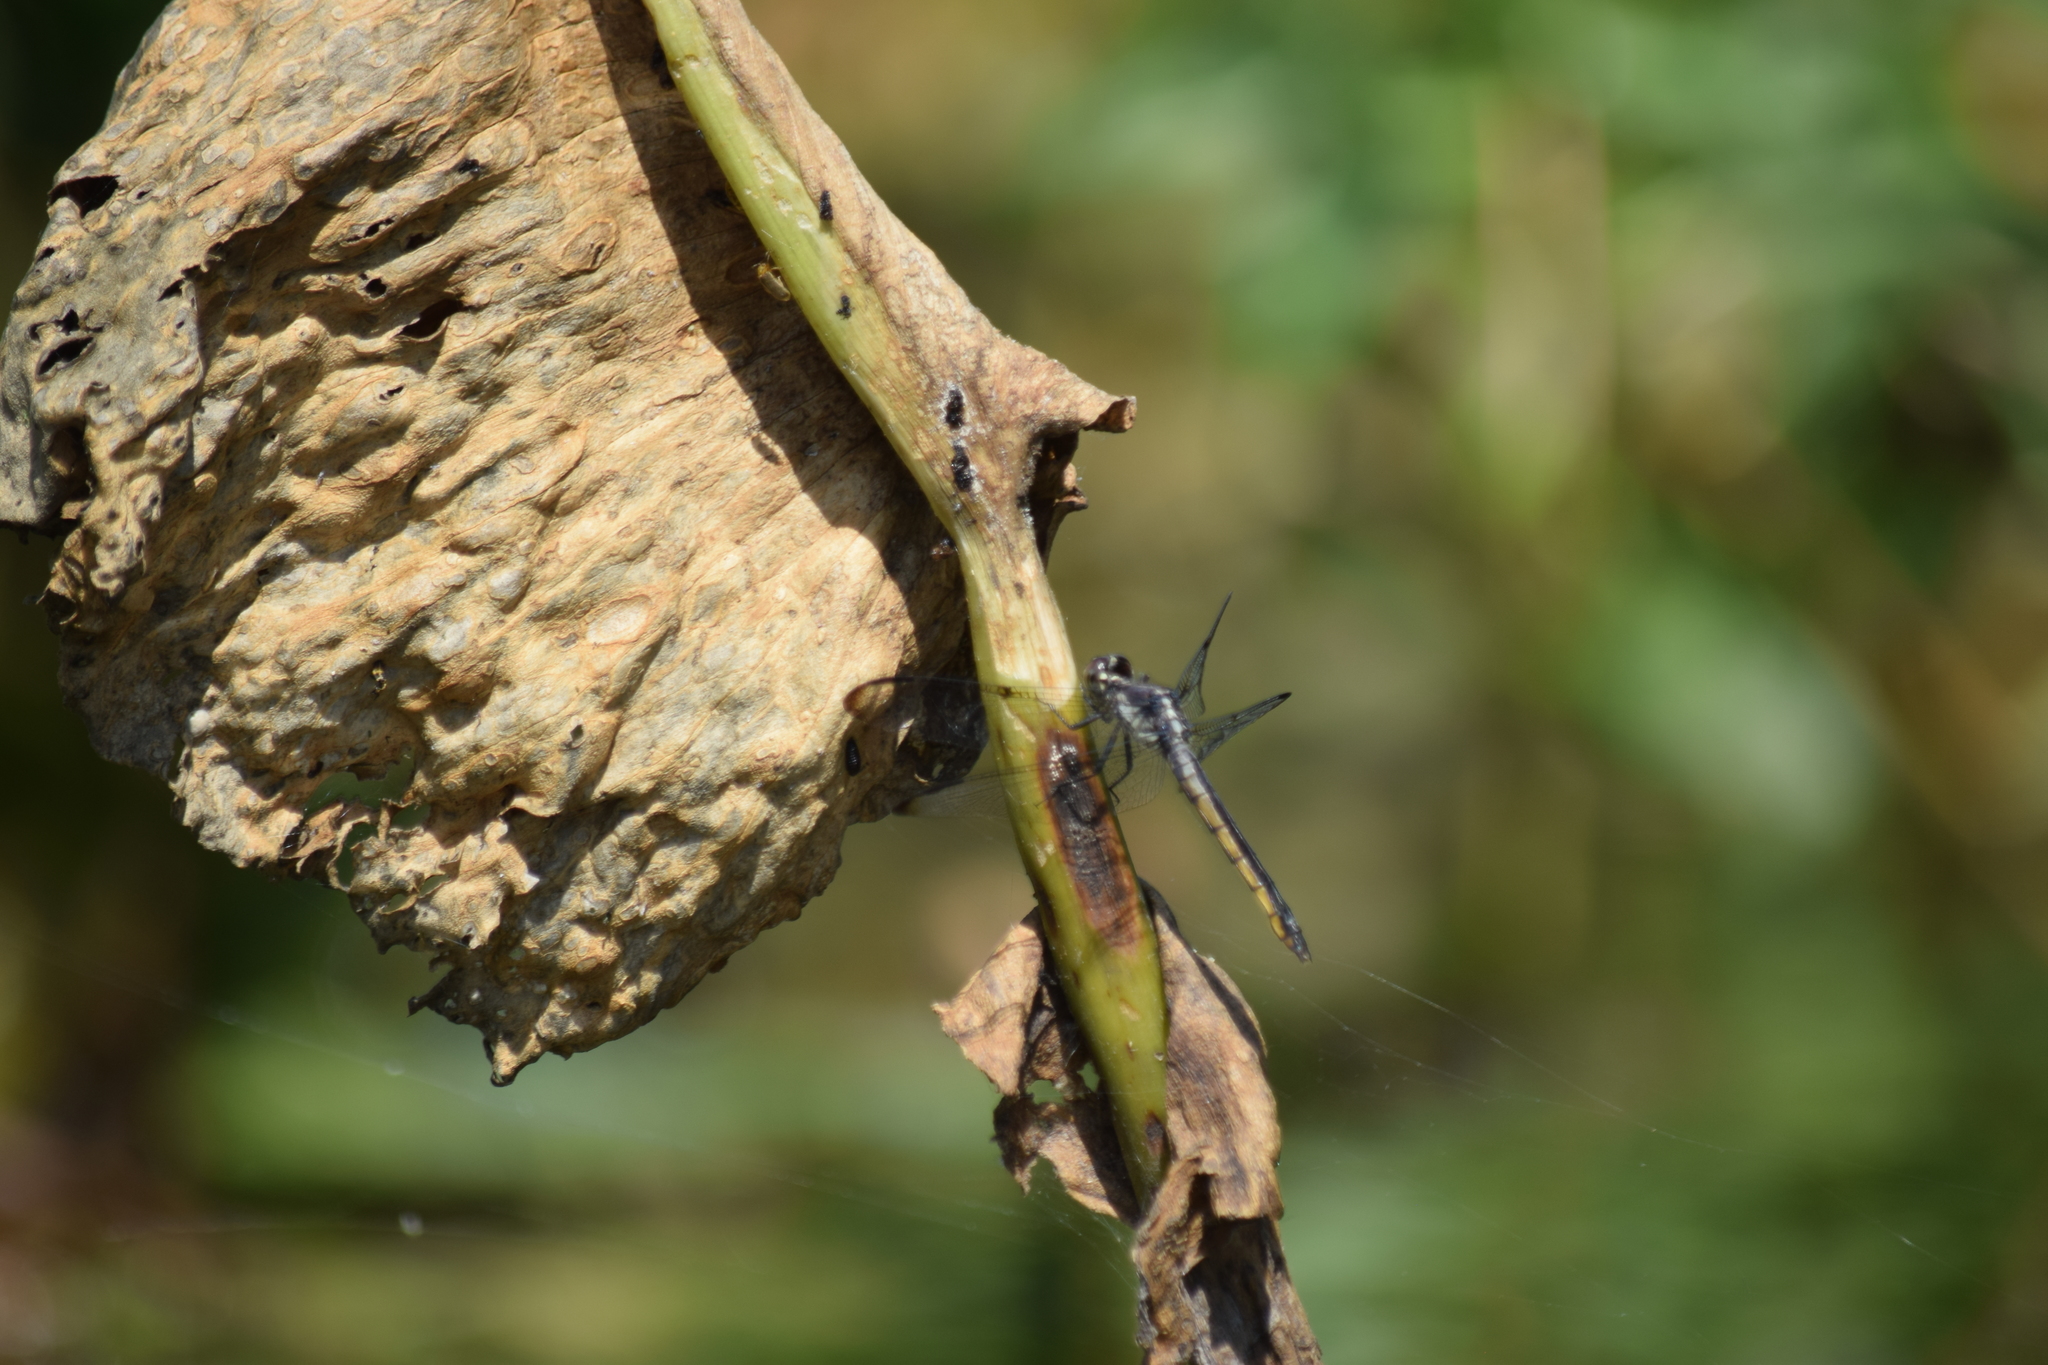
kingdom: Animalia
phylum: Arthropoda
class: Insecta
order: Odonata
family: Libellulidae
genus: Libellula
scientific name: Libellula incesta
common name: Slaty skimmer
